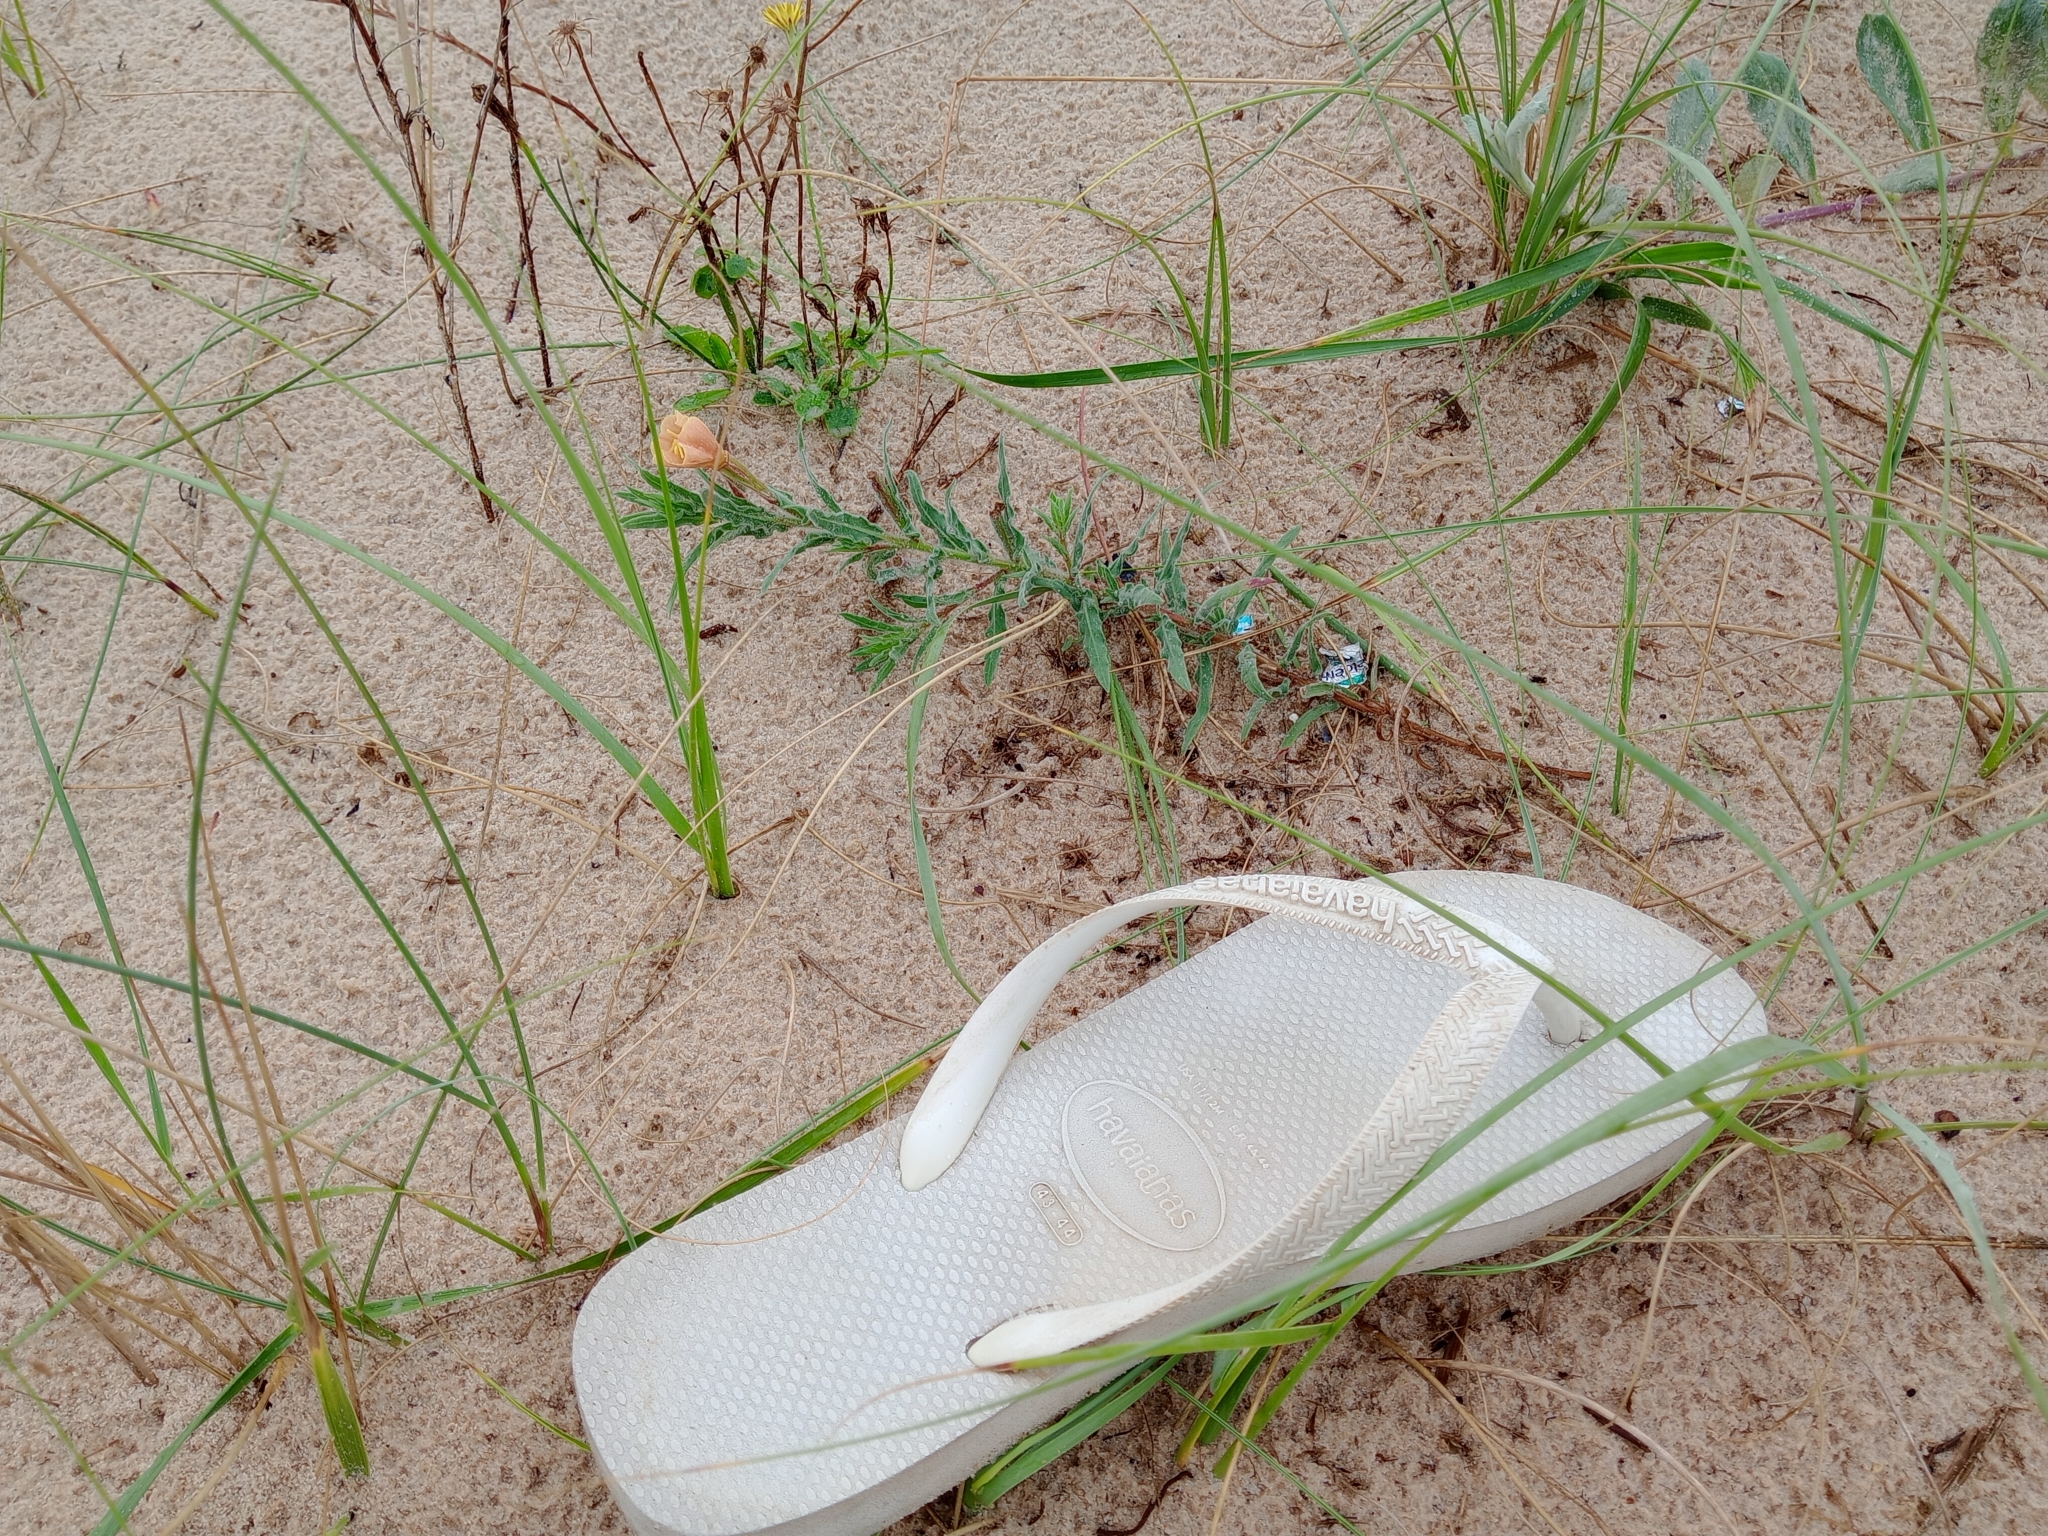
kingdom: Plantae
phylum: Tracheophyta
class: Magnoliopsida
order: Myrtales
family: Onagraceae
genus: Oenothera
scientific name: Oenothera mollissima
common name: Argentine evening primrose
